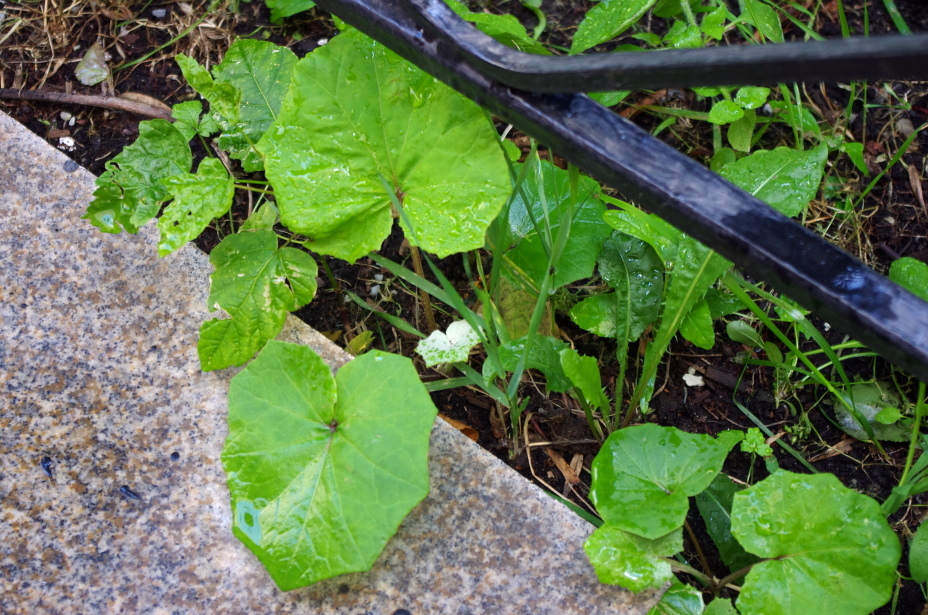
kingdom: Plantae
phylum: Tracheophyta
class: Magnoliopsida
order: Asterales
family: Asteraceae
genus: Tussilago
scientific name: Tussilago farfara
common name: Coltsfoot
